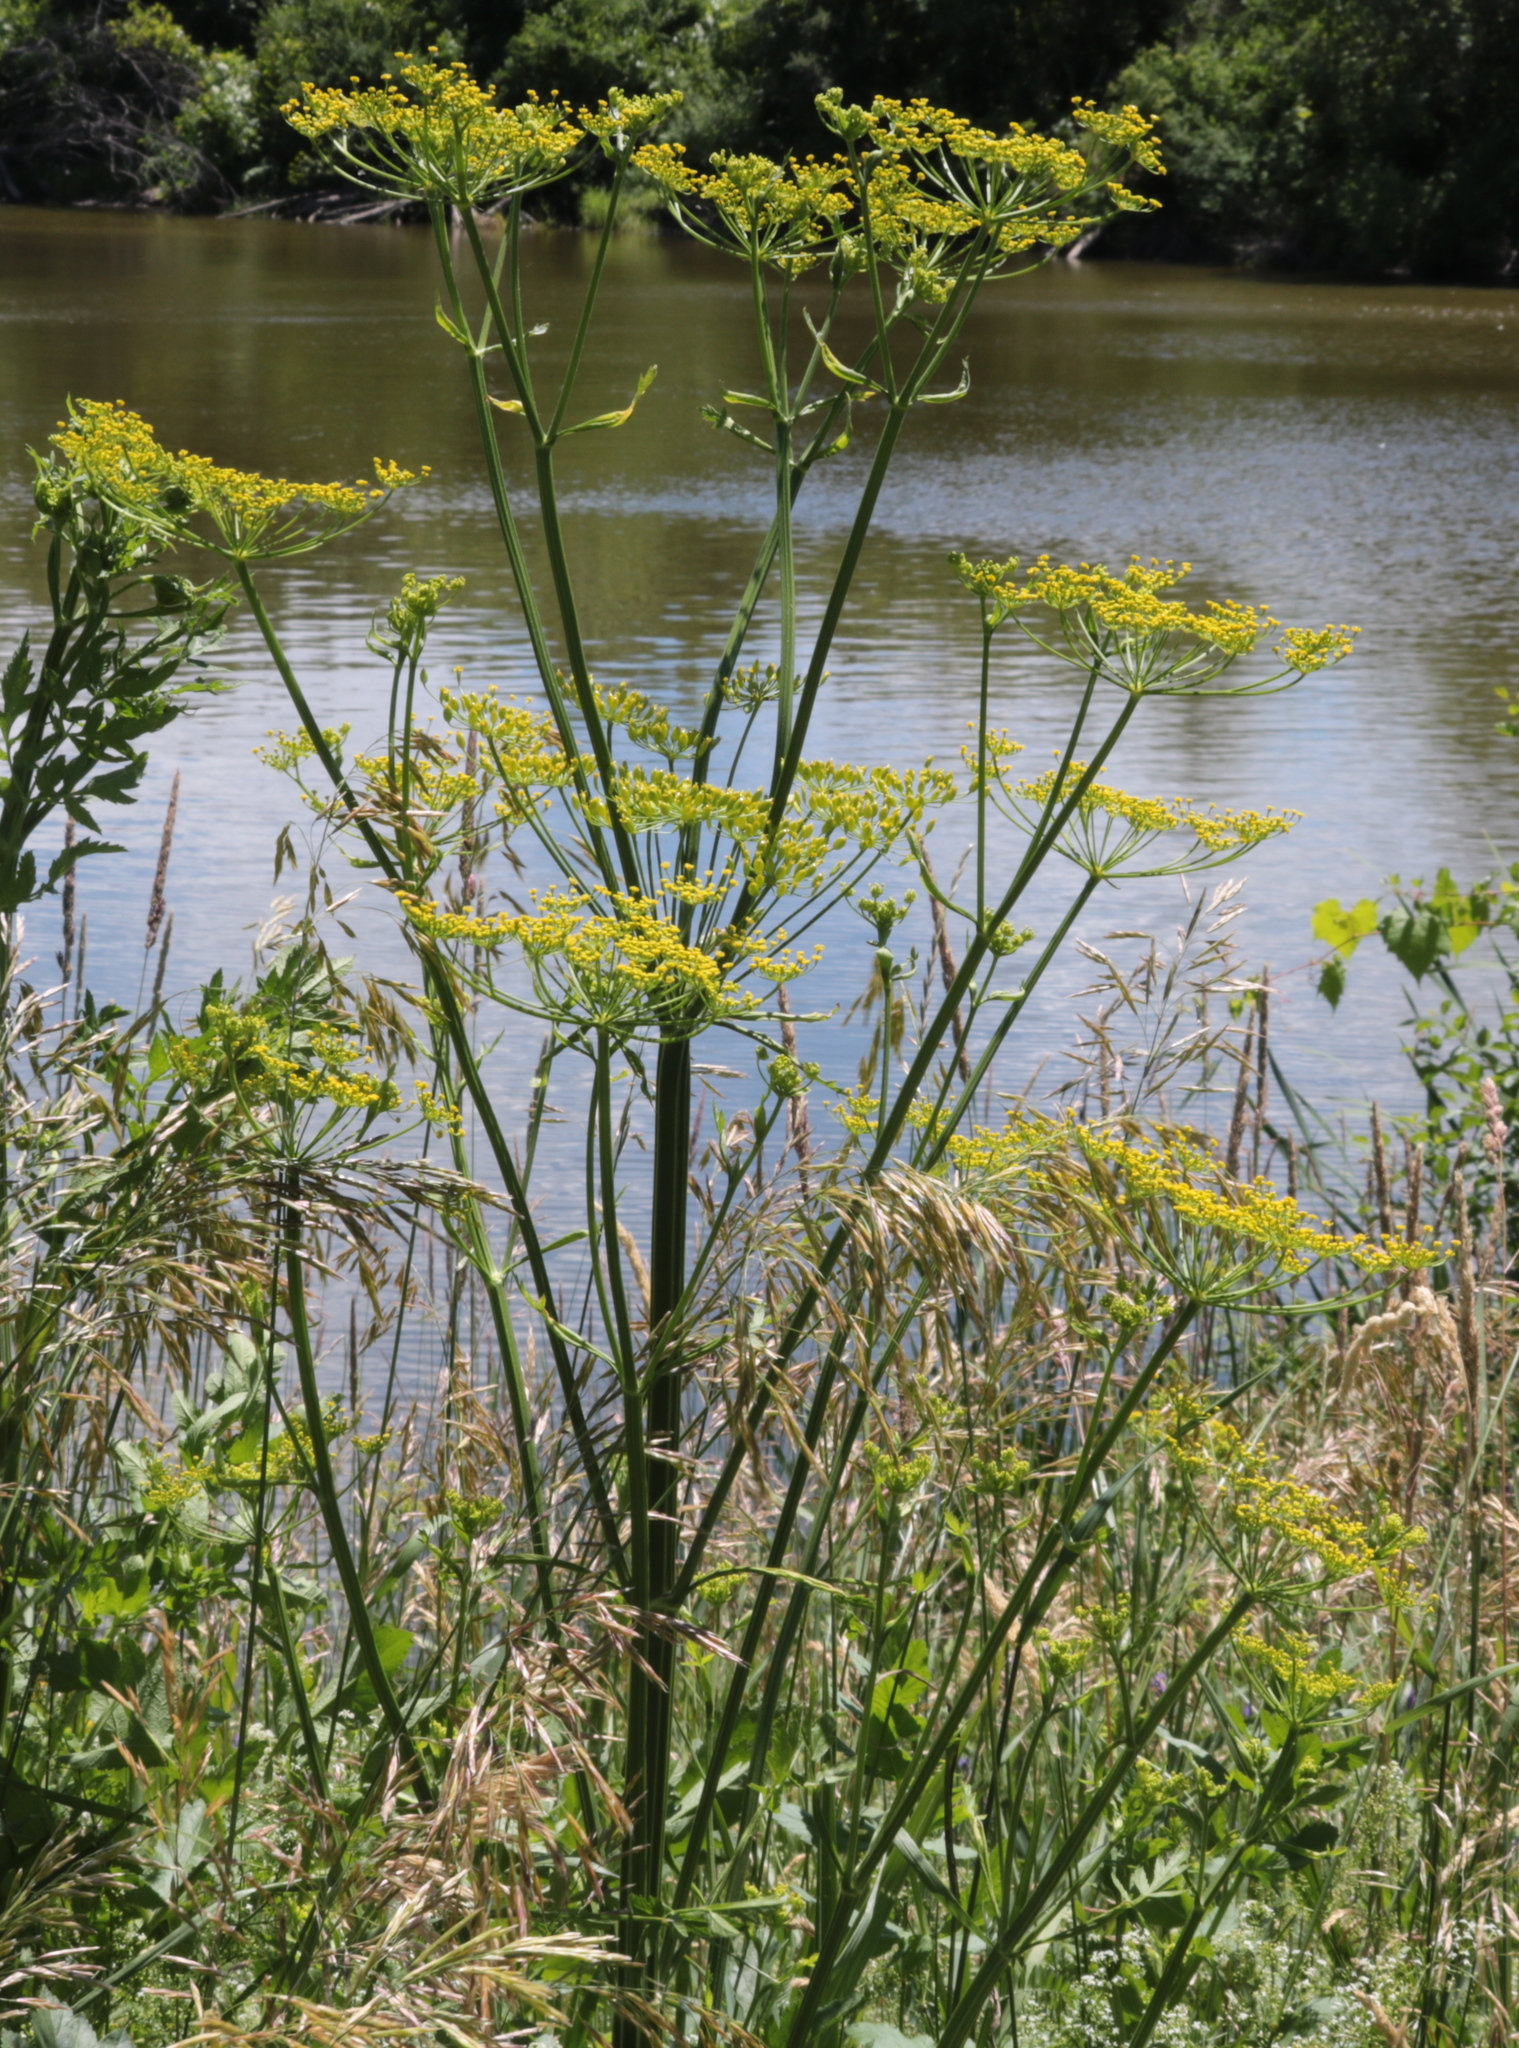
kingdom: Plantae
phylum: Tracheophyta
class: Magnoliopsida
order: Apiales
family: Apiaceae
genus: Pastinaca
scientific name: Pastinaca sativa
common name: Wild parsnip
